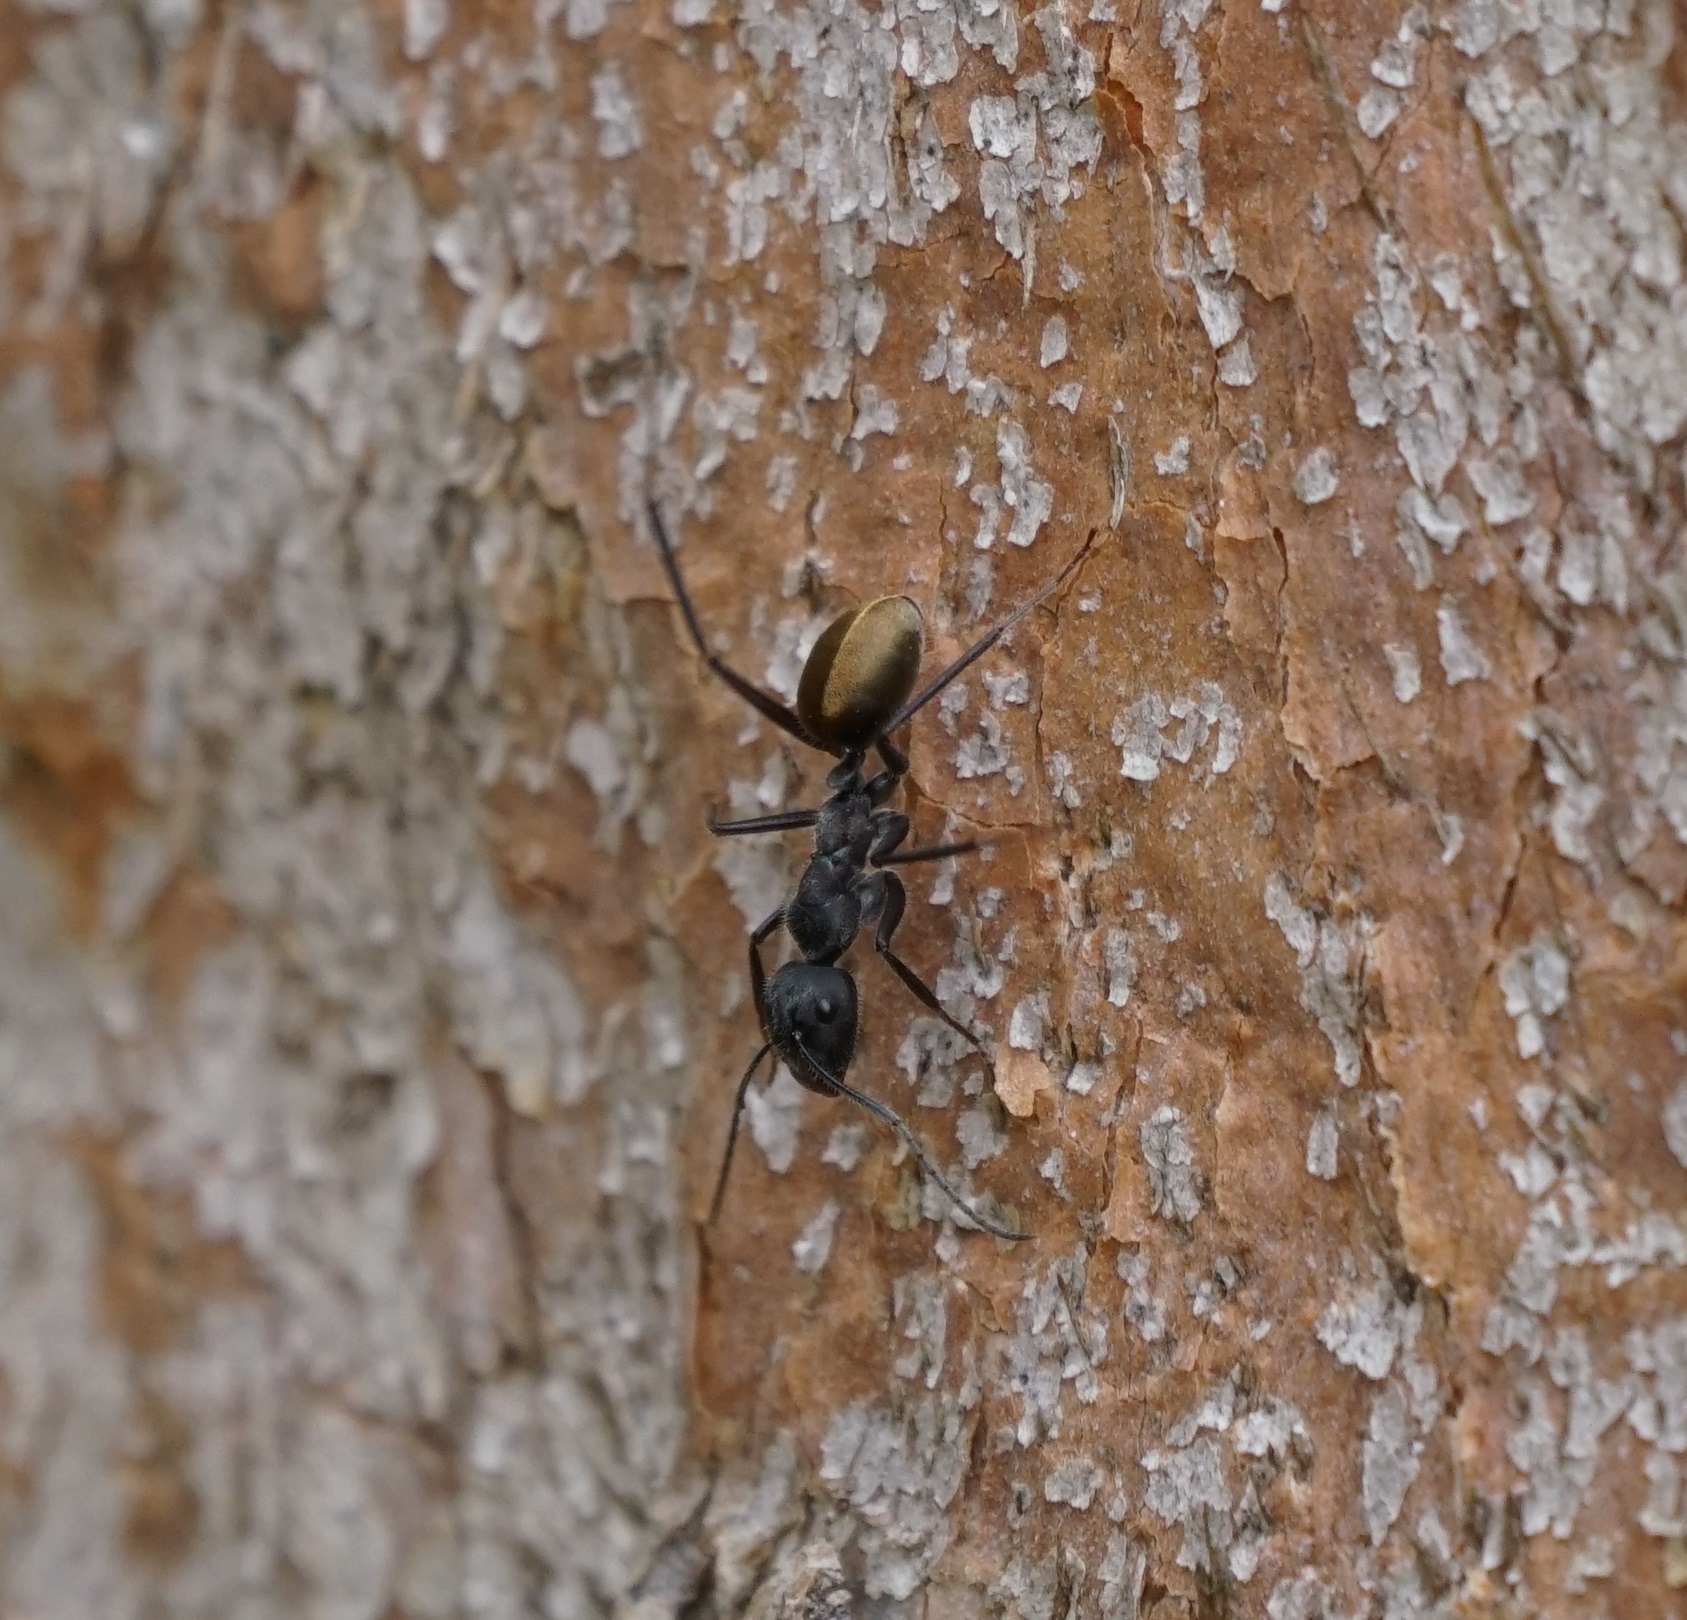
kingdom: Animalia
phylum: Arthropoda
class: Insecta
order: Hymenoptera
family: Formicidae
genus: Camponotus
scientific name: Camponotus suffusus
